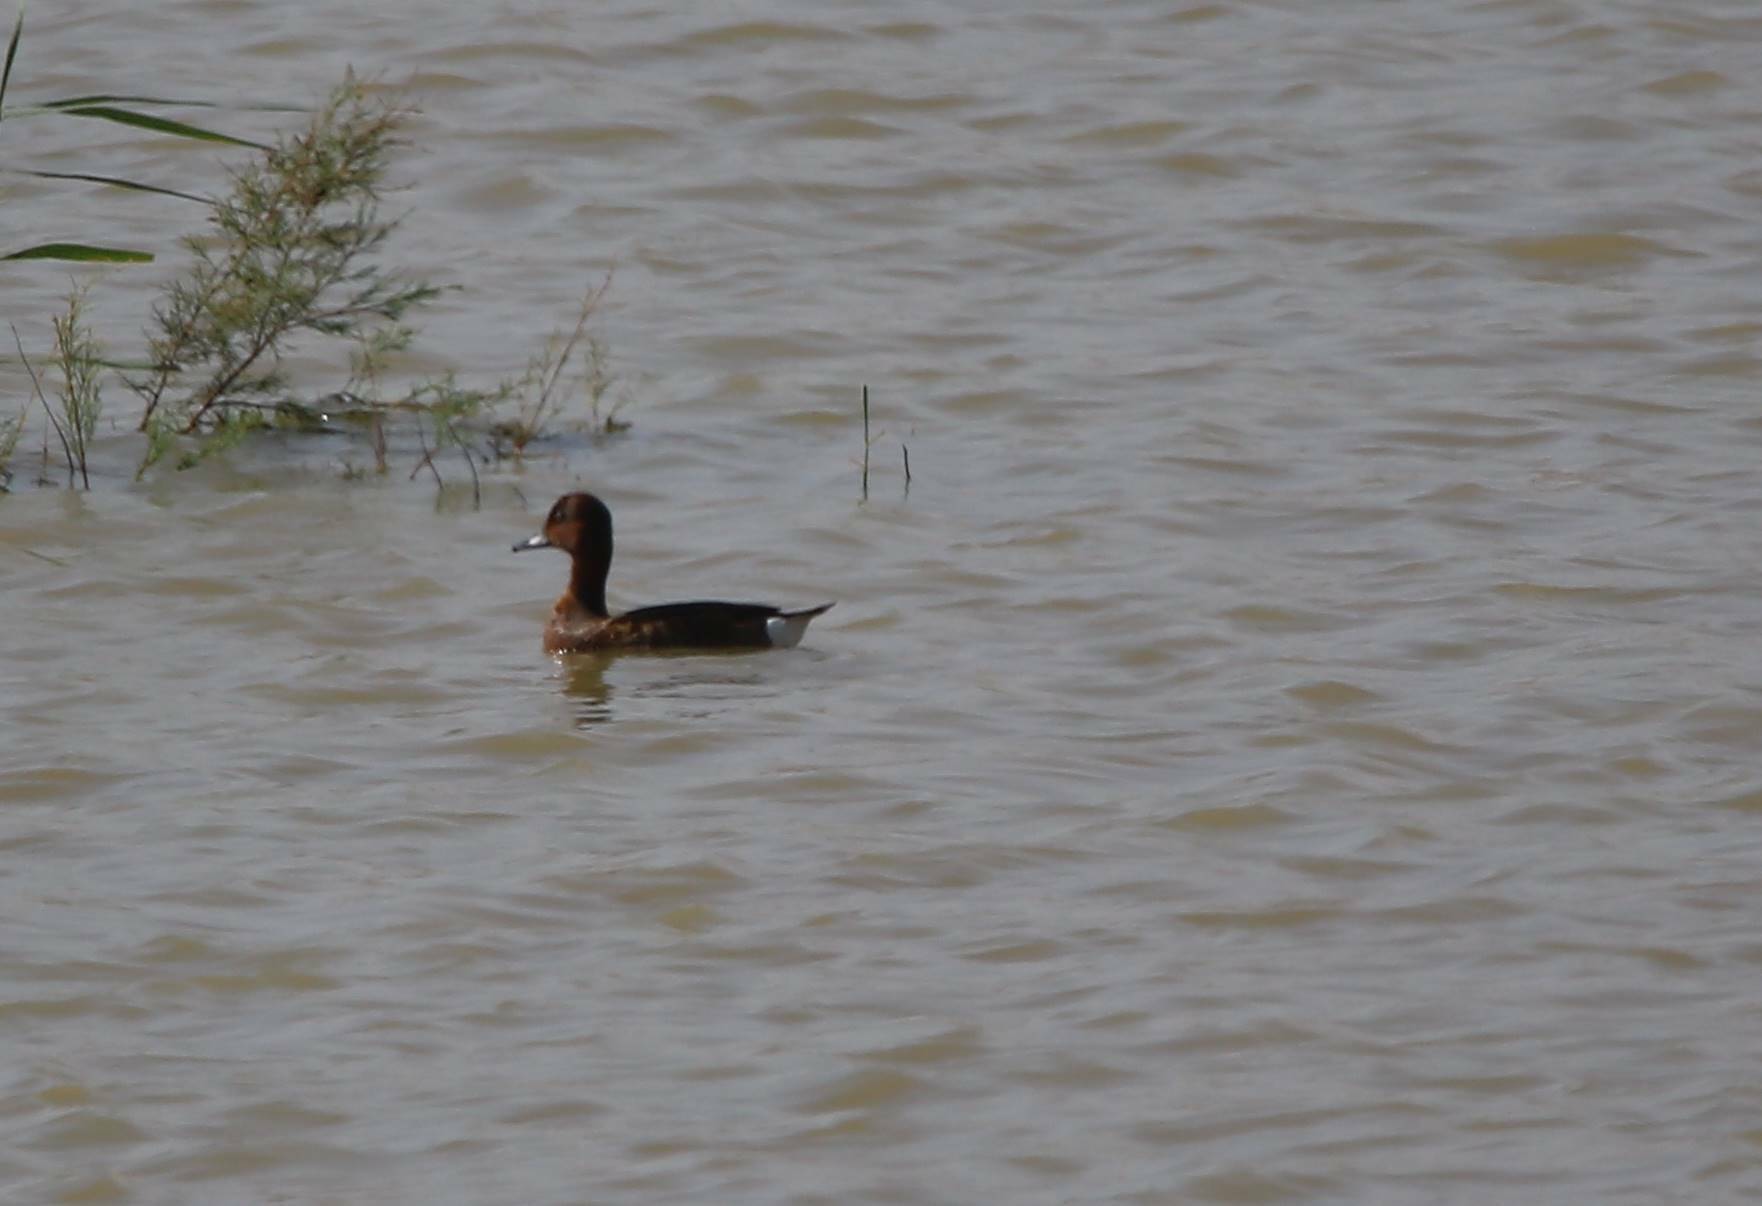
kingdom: Animalia
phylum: Chordata
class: Aves
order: Anseriformes
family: Anatidae
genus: Aythya
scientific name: Aythya nyroca
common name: Ferruginous duck
